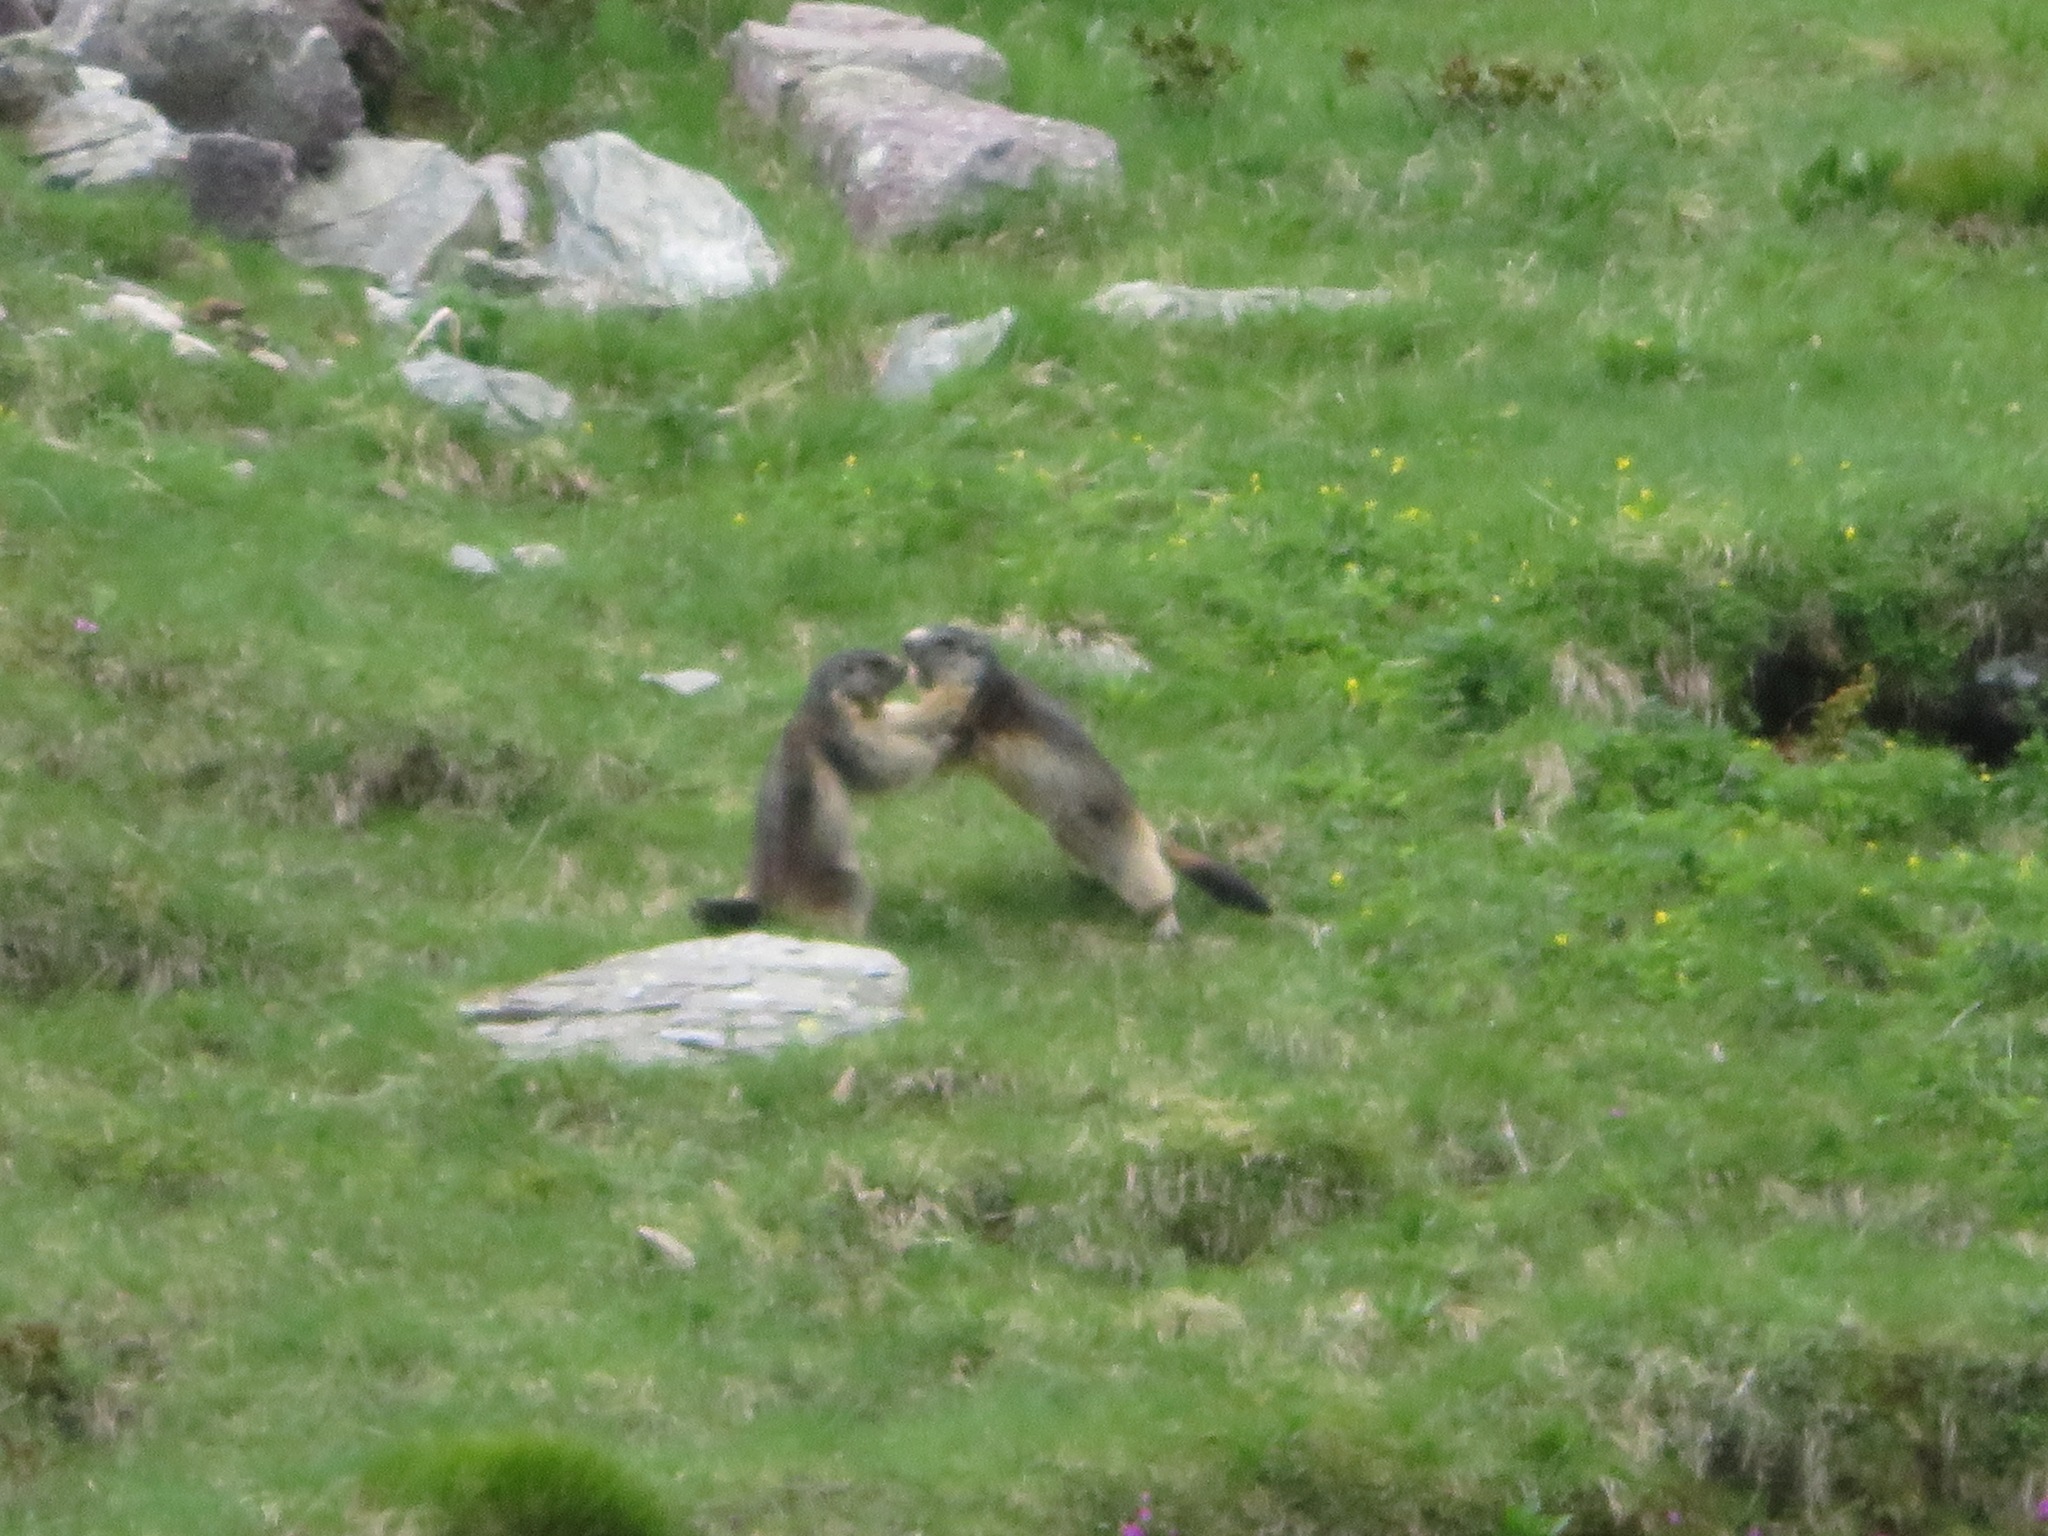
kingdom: Animalia
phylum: Chordata
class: Mammalia
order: Rodentia
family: Sciuridae
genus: Marmota
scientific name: Marmota marmota
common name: Alpine marmot
